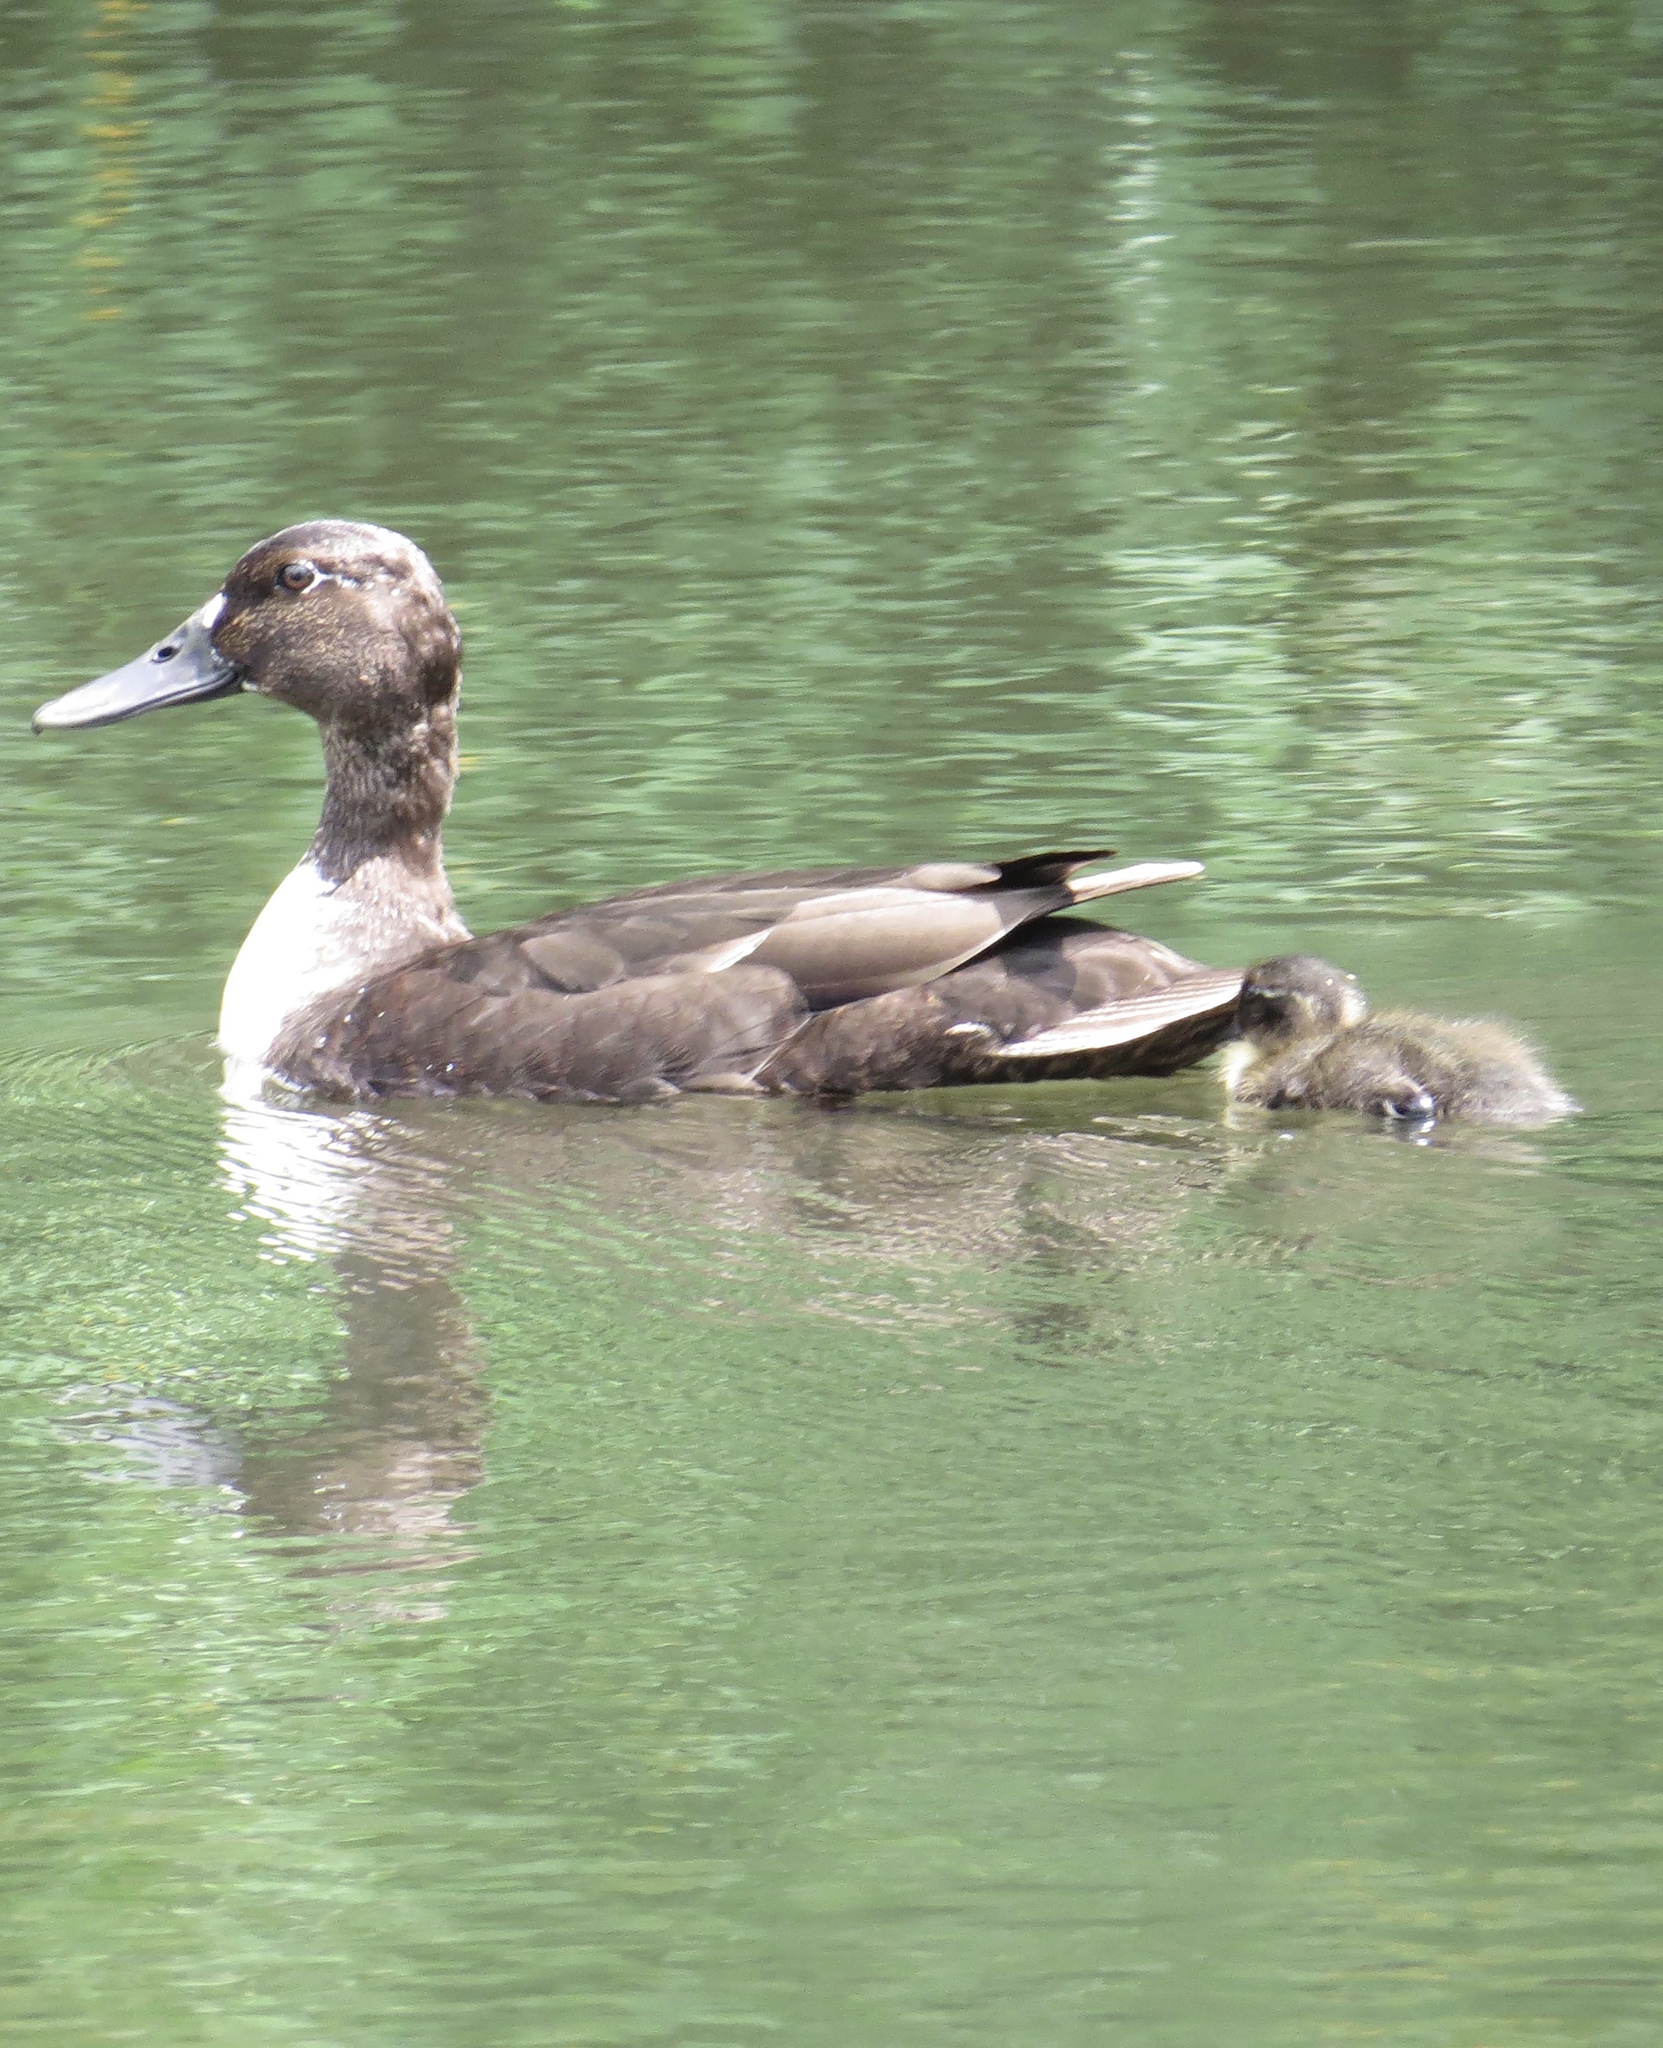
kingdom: Animalia
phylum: Chordata
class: Aves
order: Anseriformes
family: Anatidae
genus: Anas
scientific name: Anas platyrhynchos
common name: Mallard
